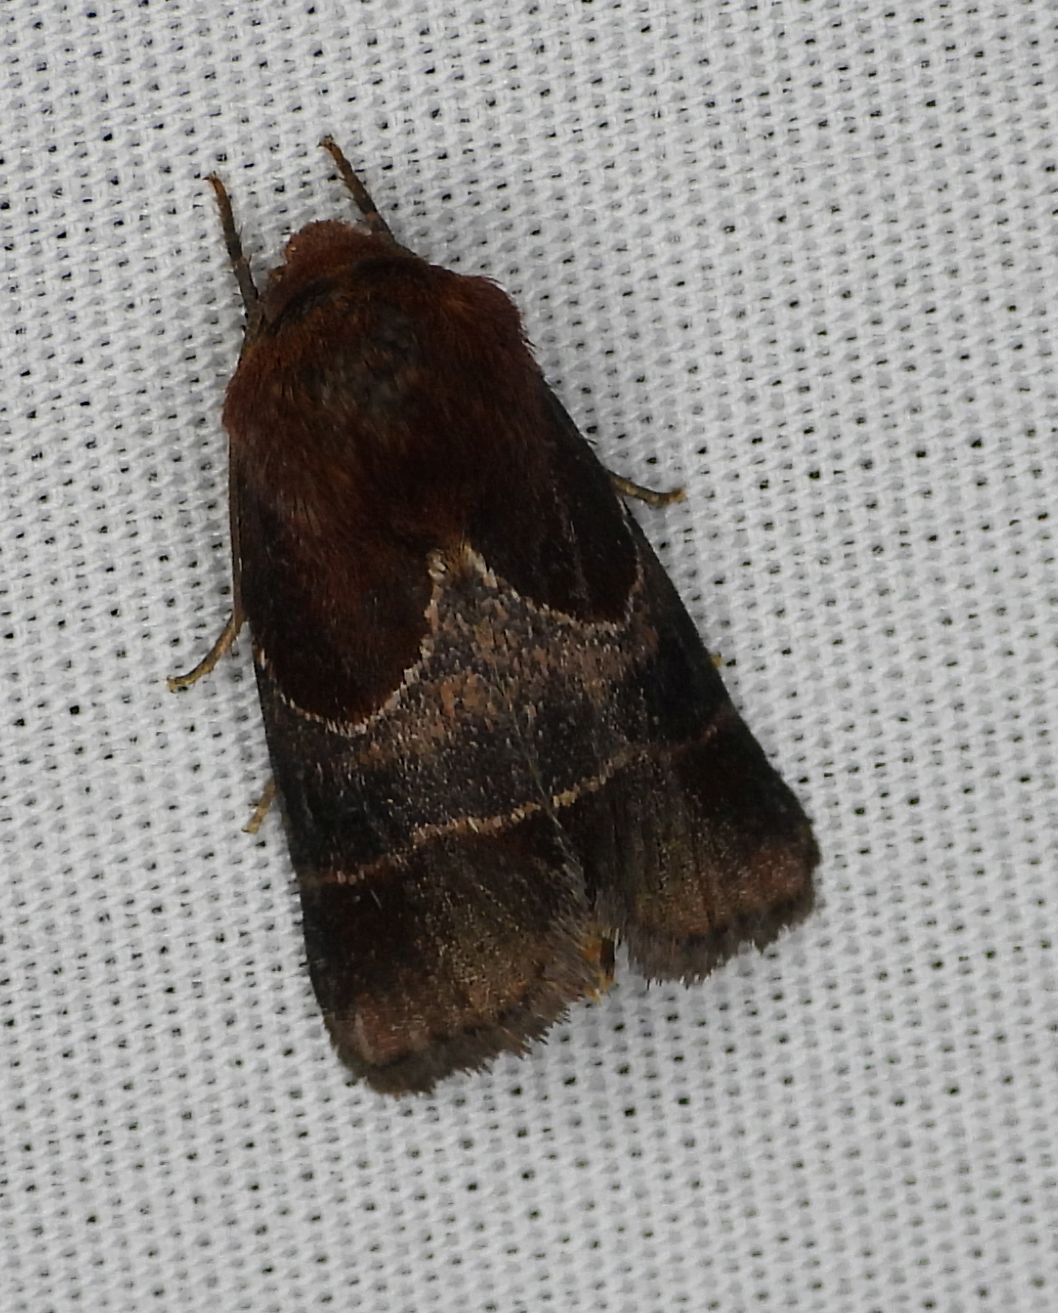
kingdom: Animalia
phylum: Arthropoda
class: Insecta
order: Lepidoptera
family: Noctuidae
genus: Schinia
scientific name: Schinia arcigera
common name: Arcigera flower moth
